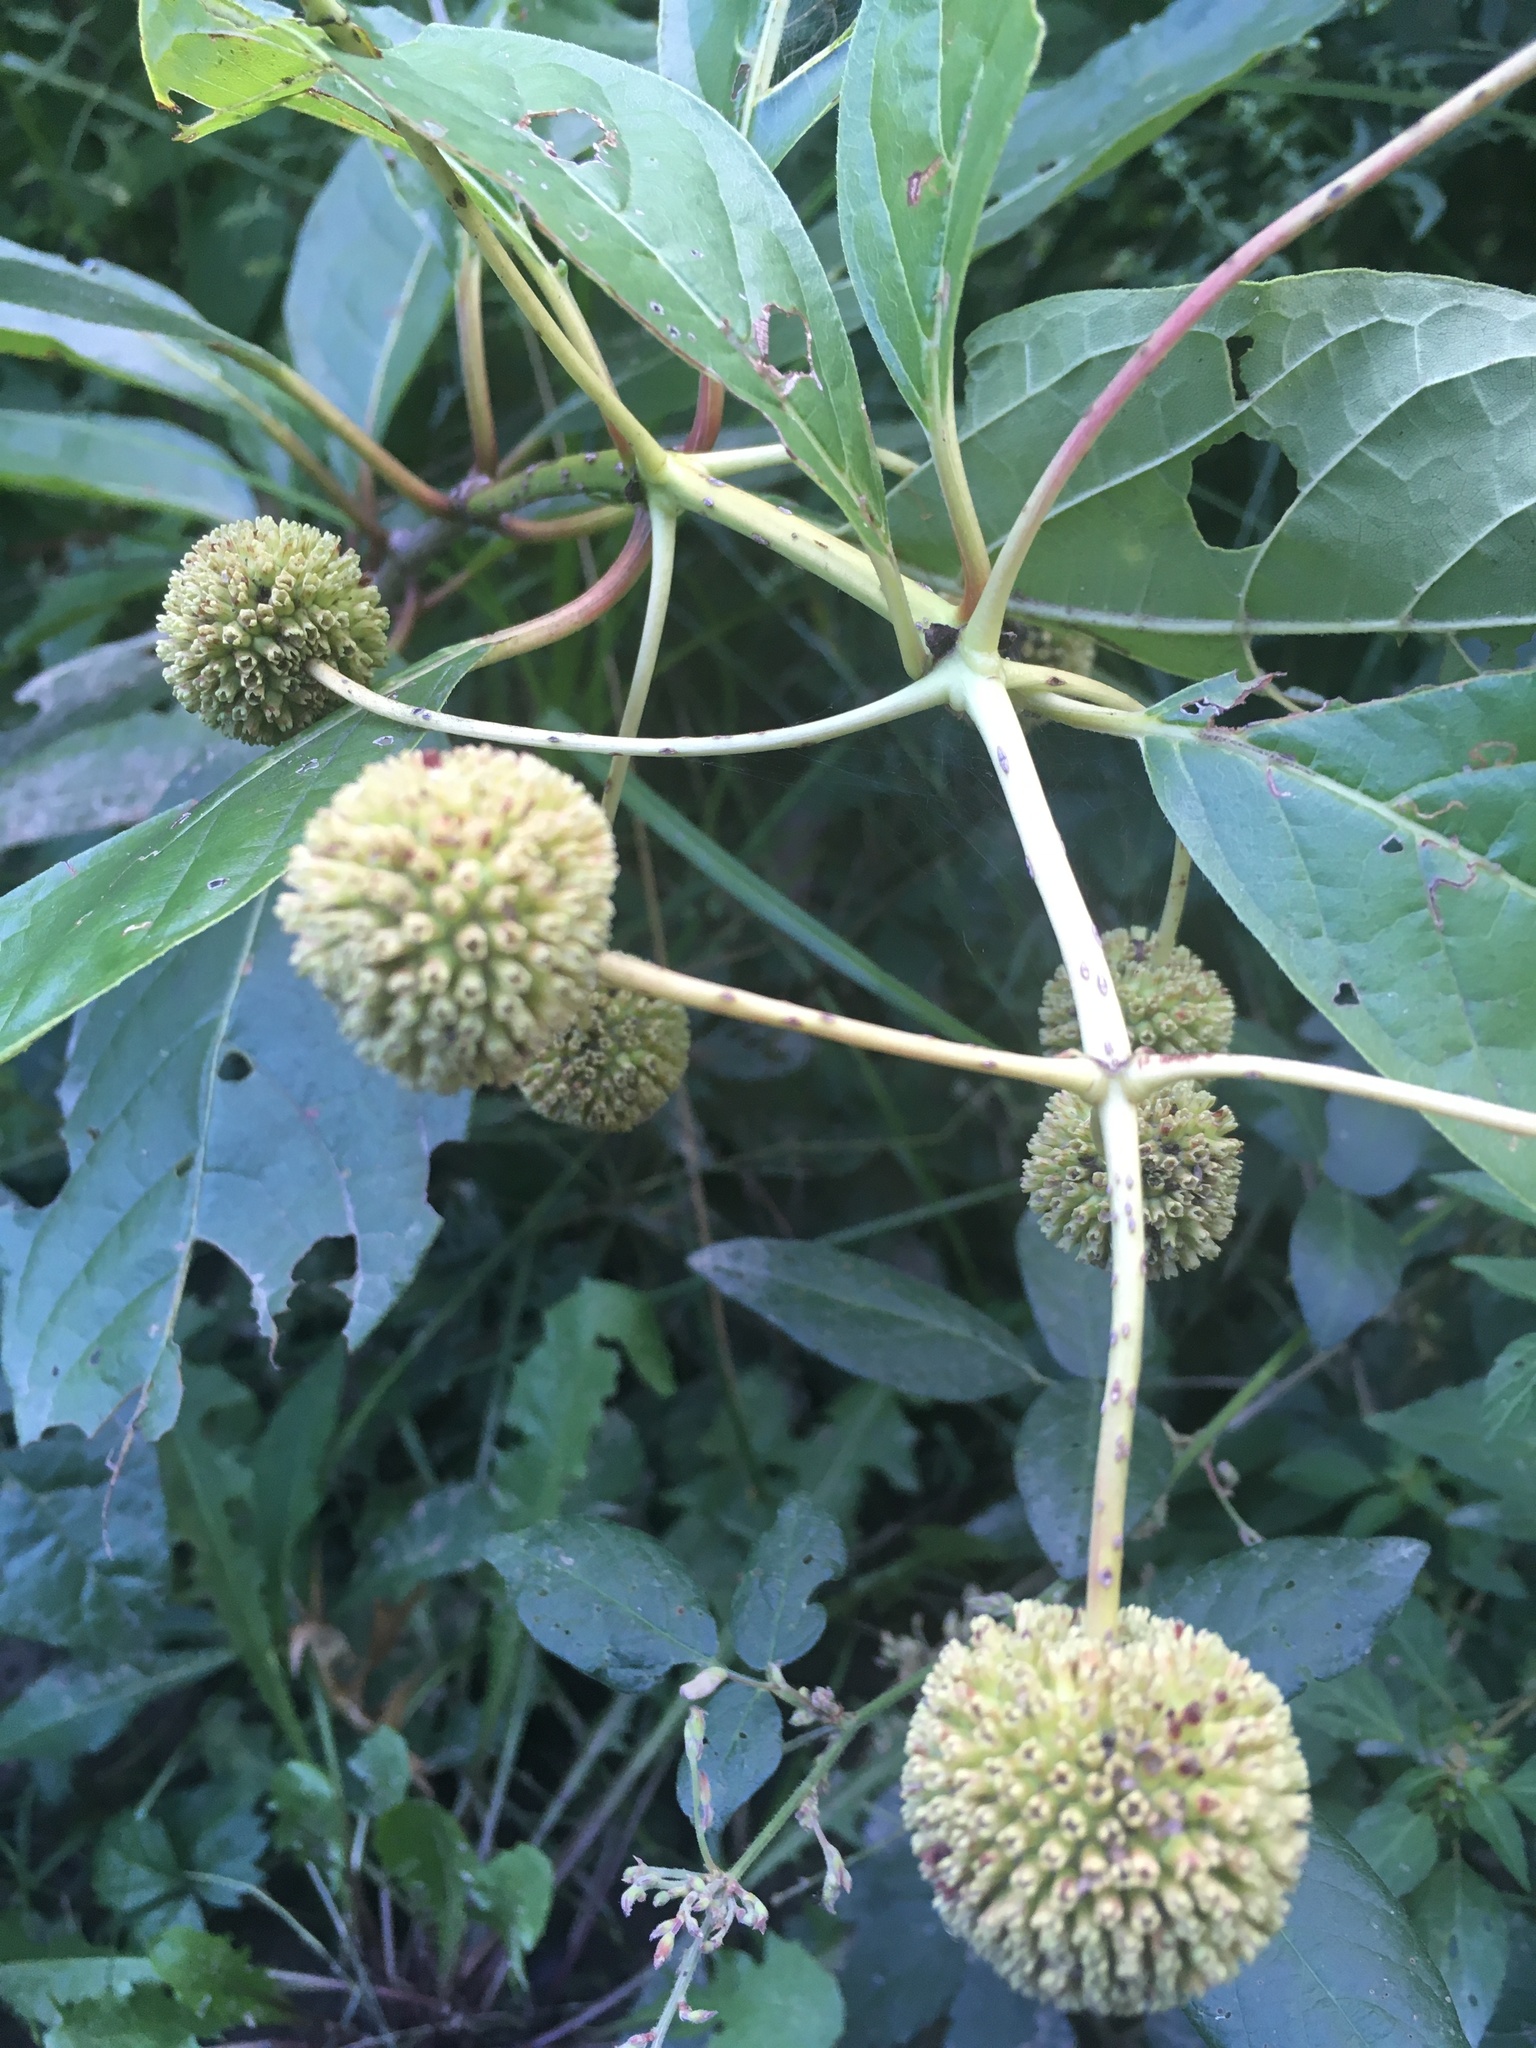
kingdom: Plantae
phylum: Tracheophyta
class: Magnoliopsida
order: Gentianales
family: Rubiaceae
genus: Cephalanthus
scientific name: Cephalanthus occidentalis
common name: Button-willow
